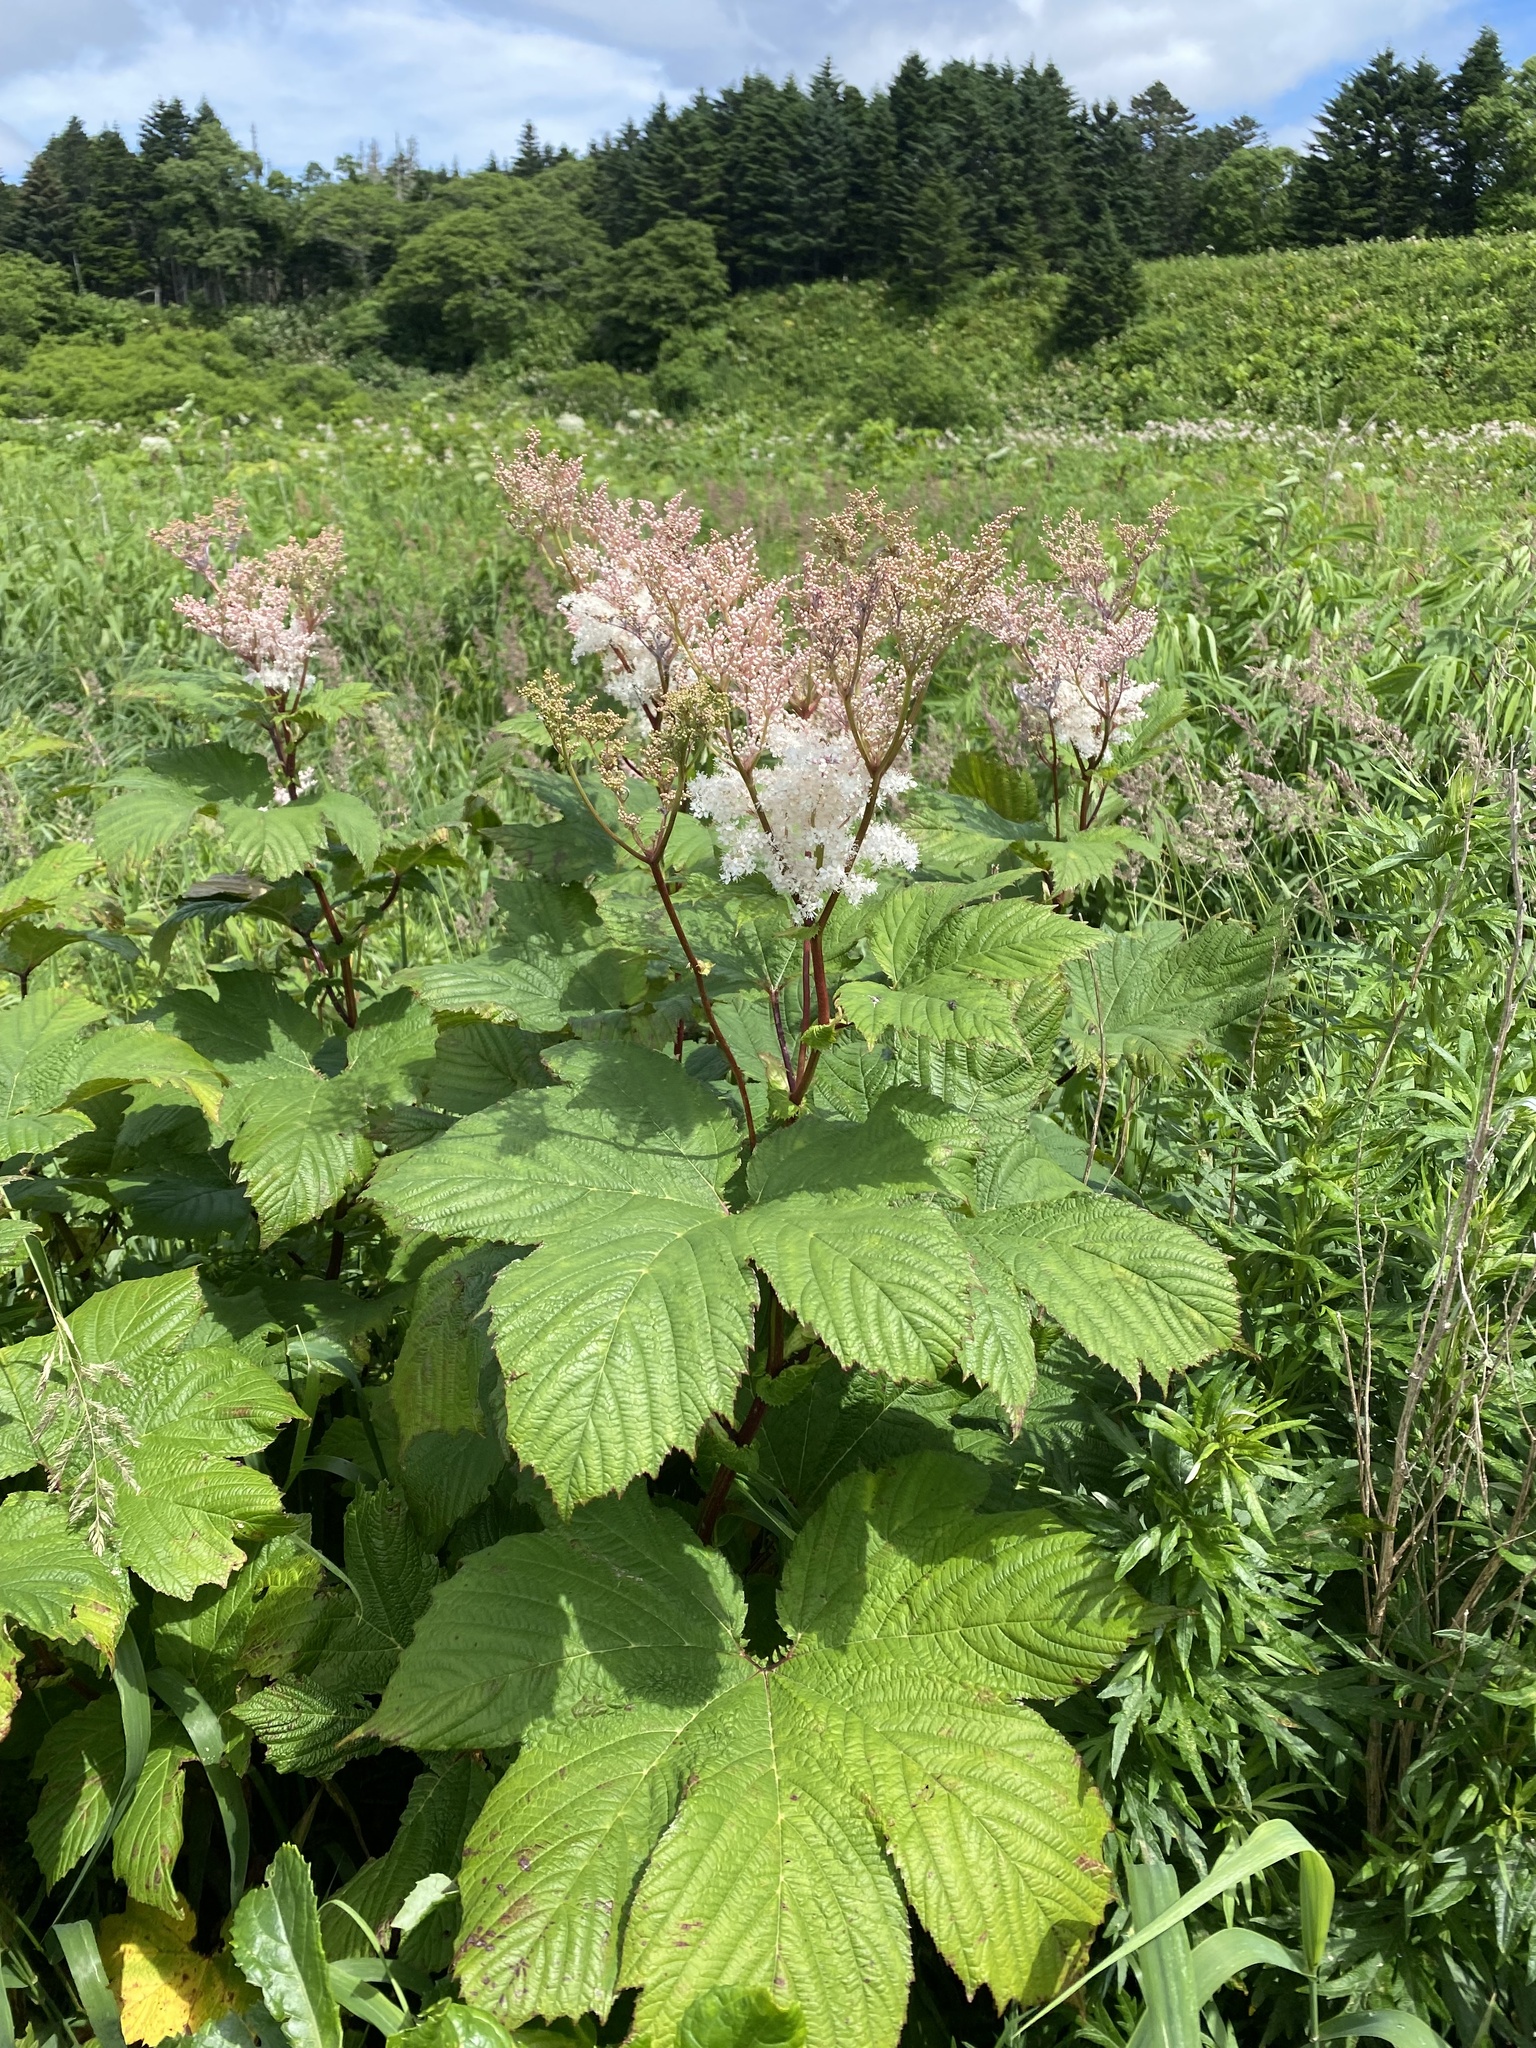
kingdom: Plantae
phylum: Tracheophyta
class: Magnoliopsida
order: Rosales
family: Rosaceae
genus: Filipendula
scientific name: Filipendula camtschatica
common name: Giant meadowsweet
